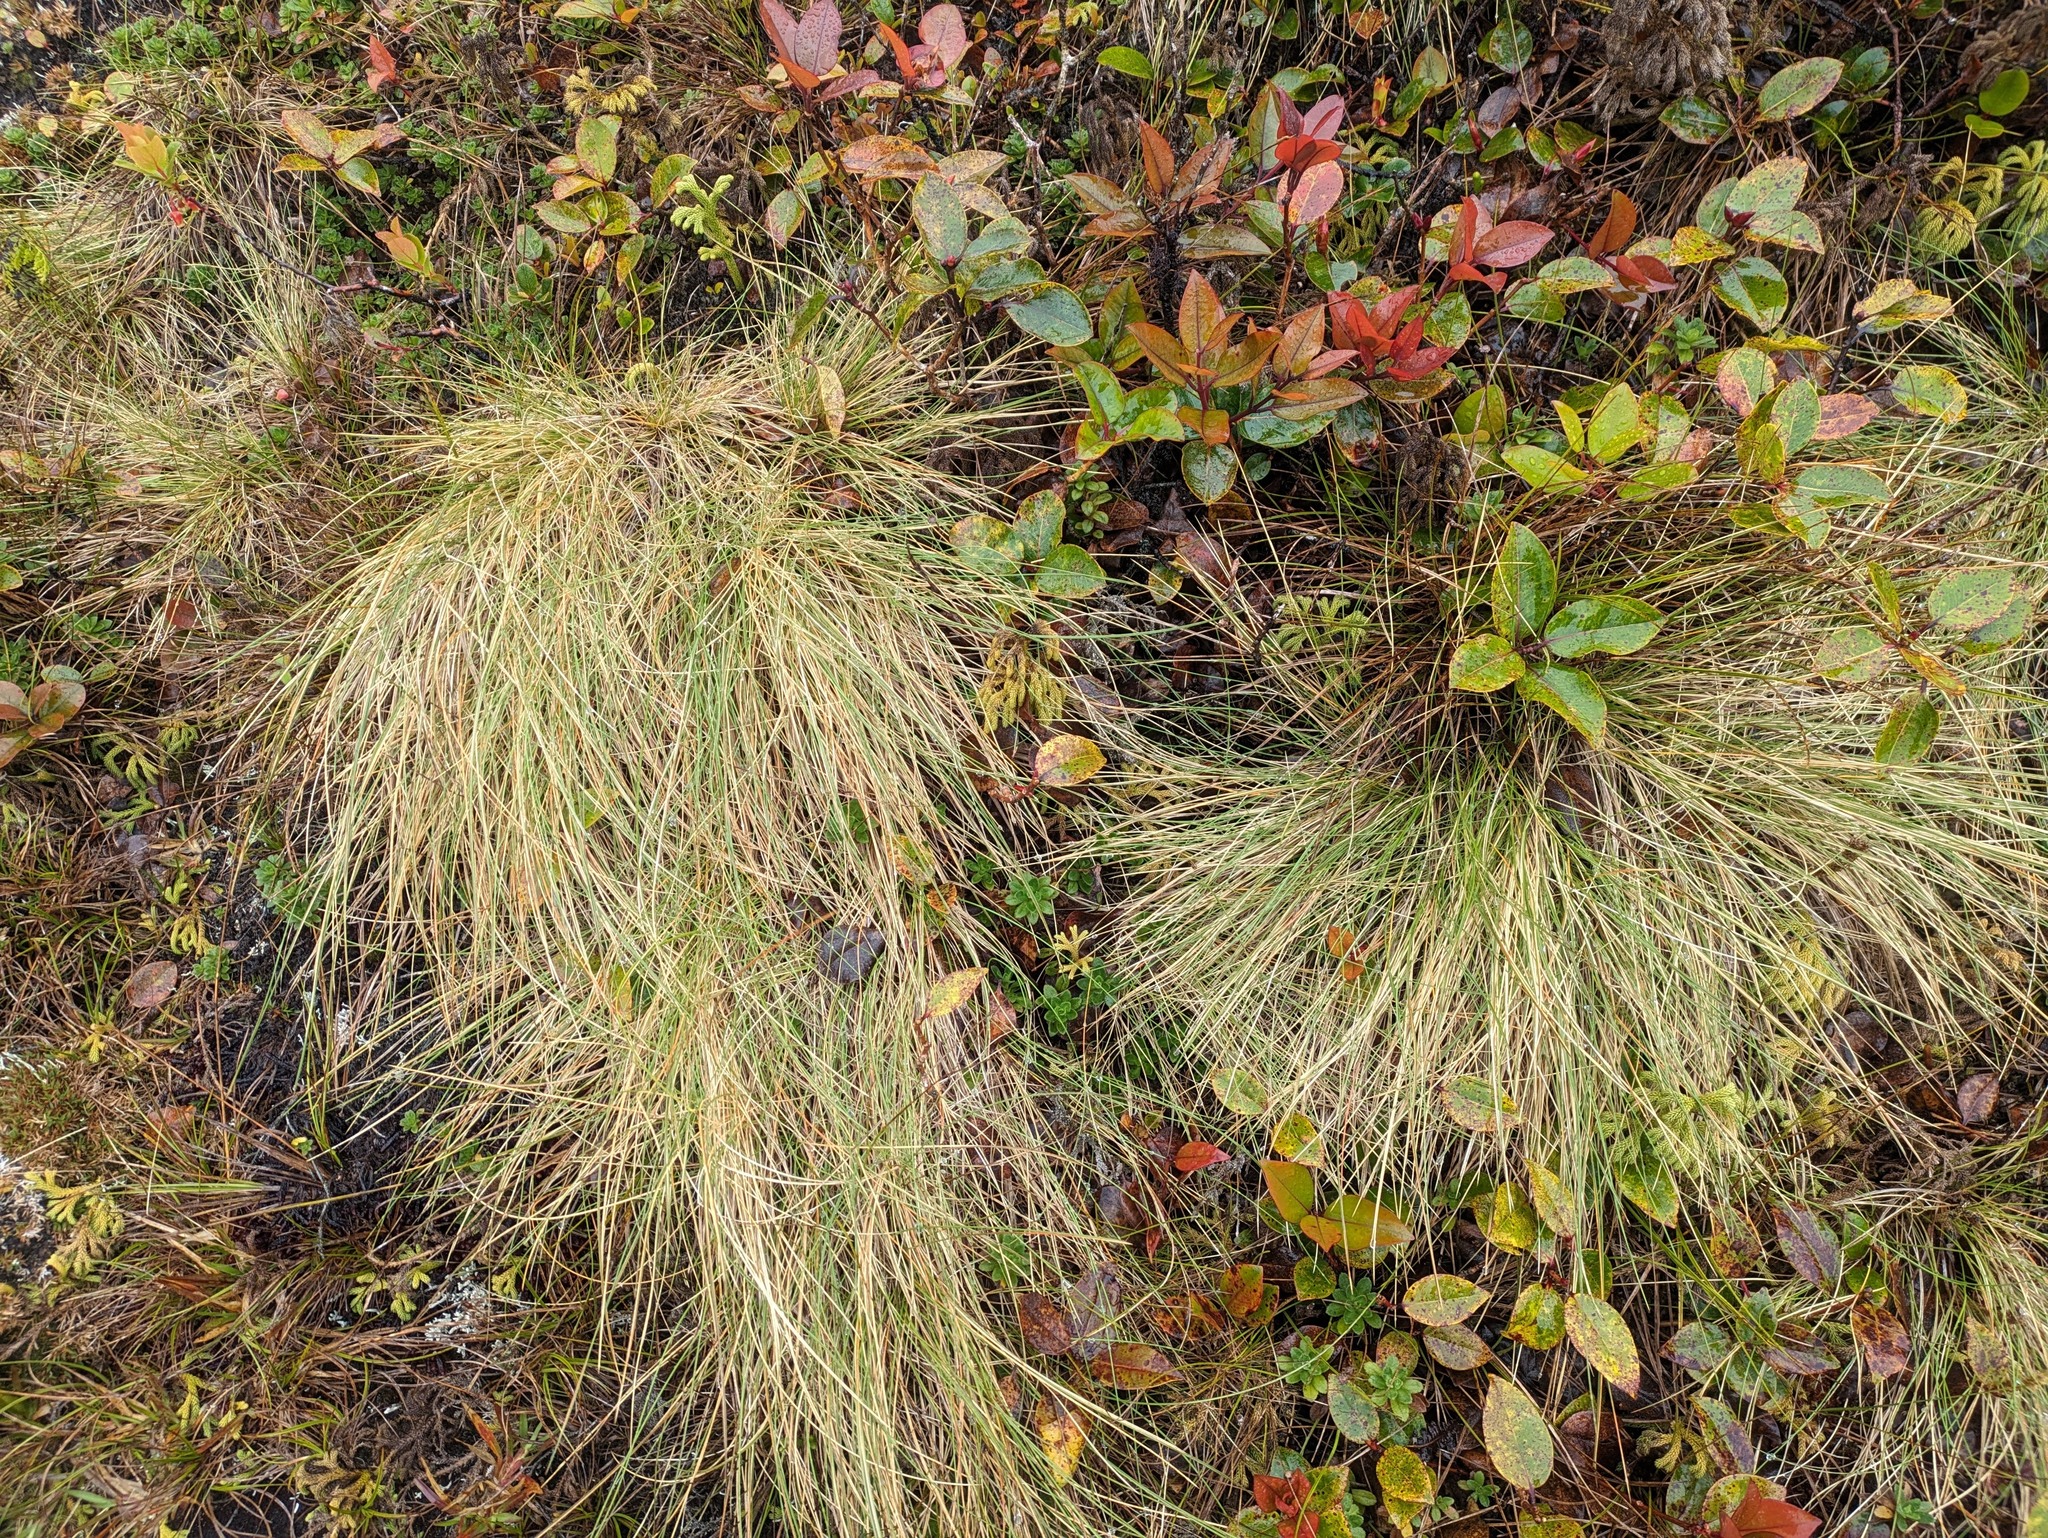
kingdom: Plantae
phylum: Tracheophyta
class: Liliopsida
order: Poales
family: Poaceae
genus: Deschampsia
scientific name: Deschampsia nubigena
